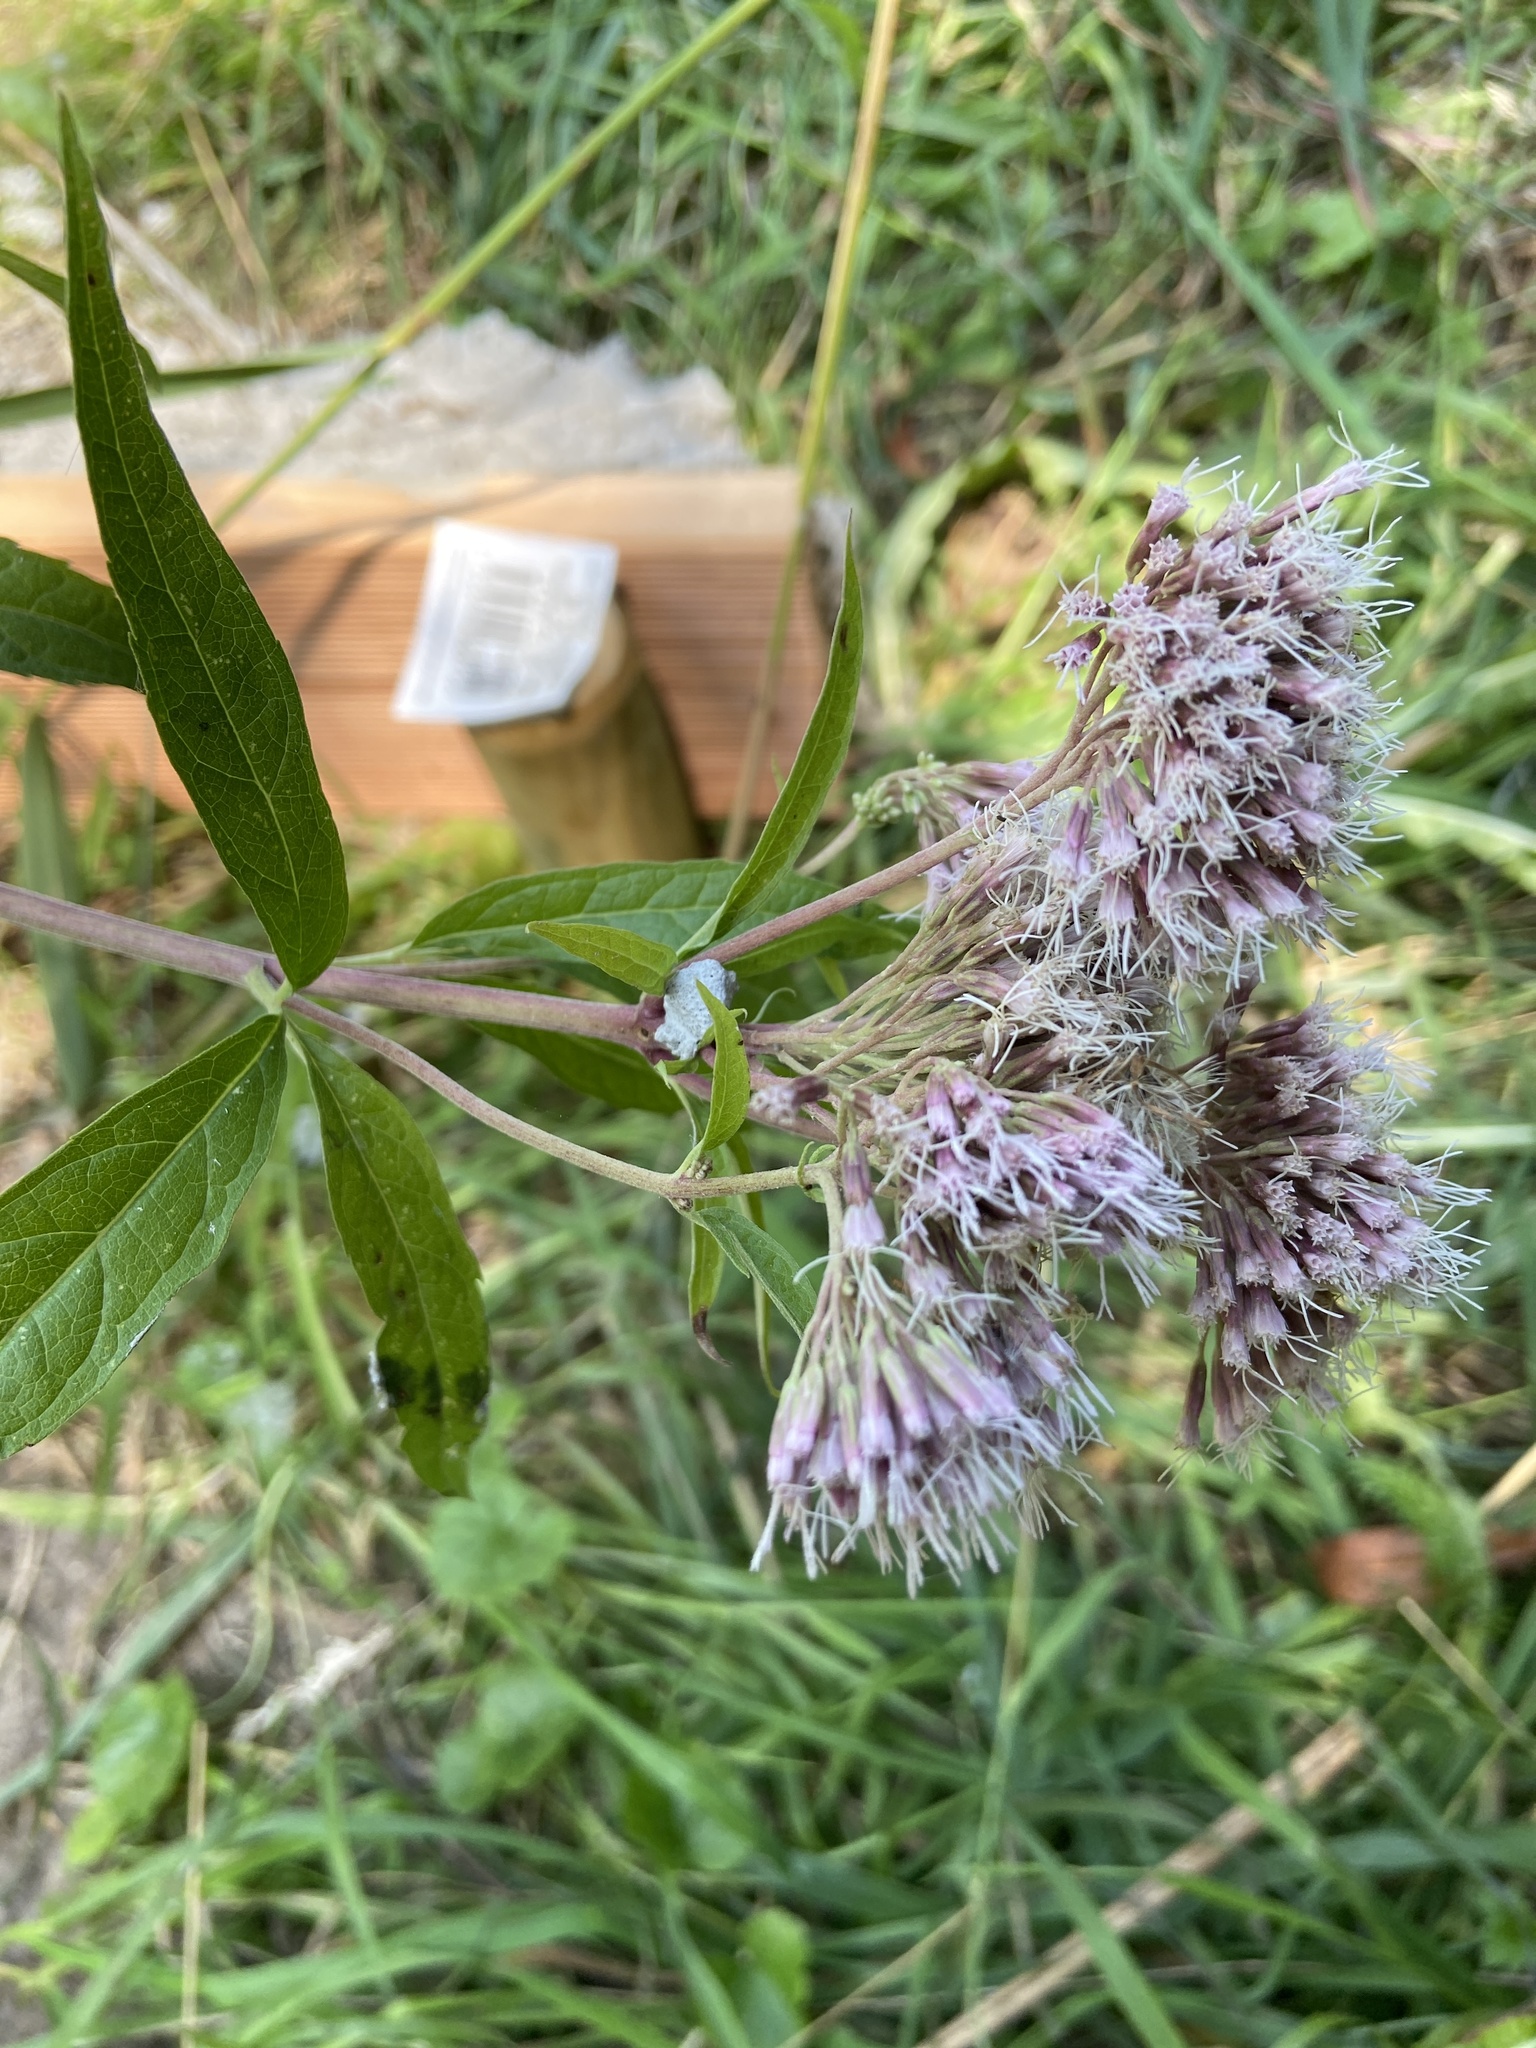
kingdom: Plantae
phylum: Tracheophyta
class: Magnoliopsida
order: Asterales
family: Asteraceae
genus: Eupatorium
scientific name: Eupatorium cannabinum
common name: Hemp-agrimony
